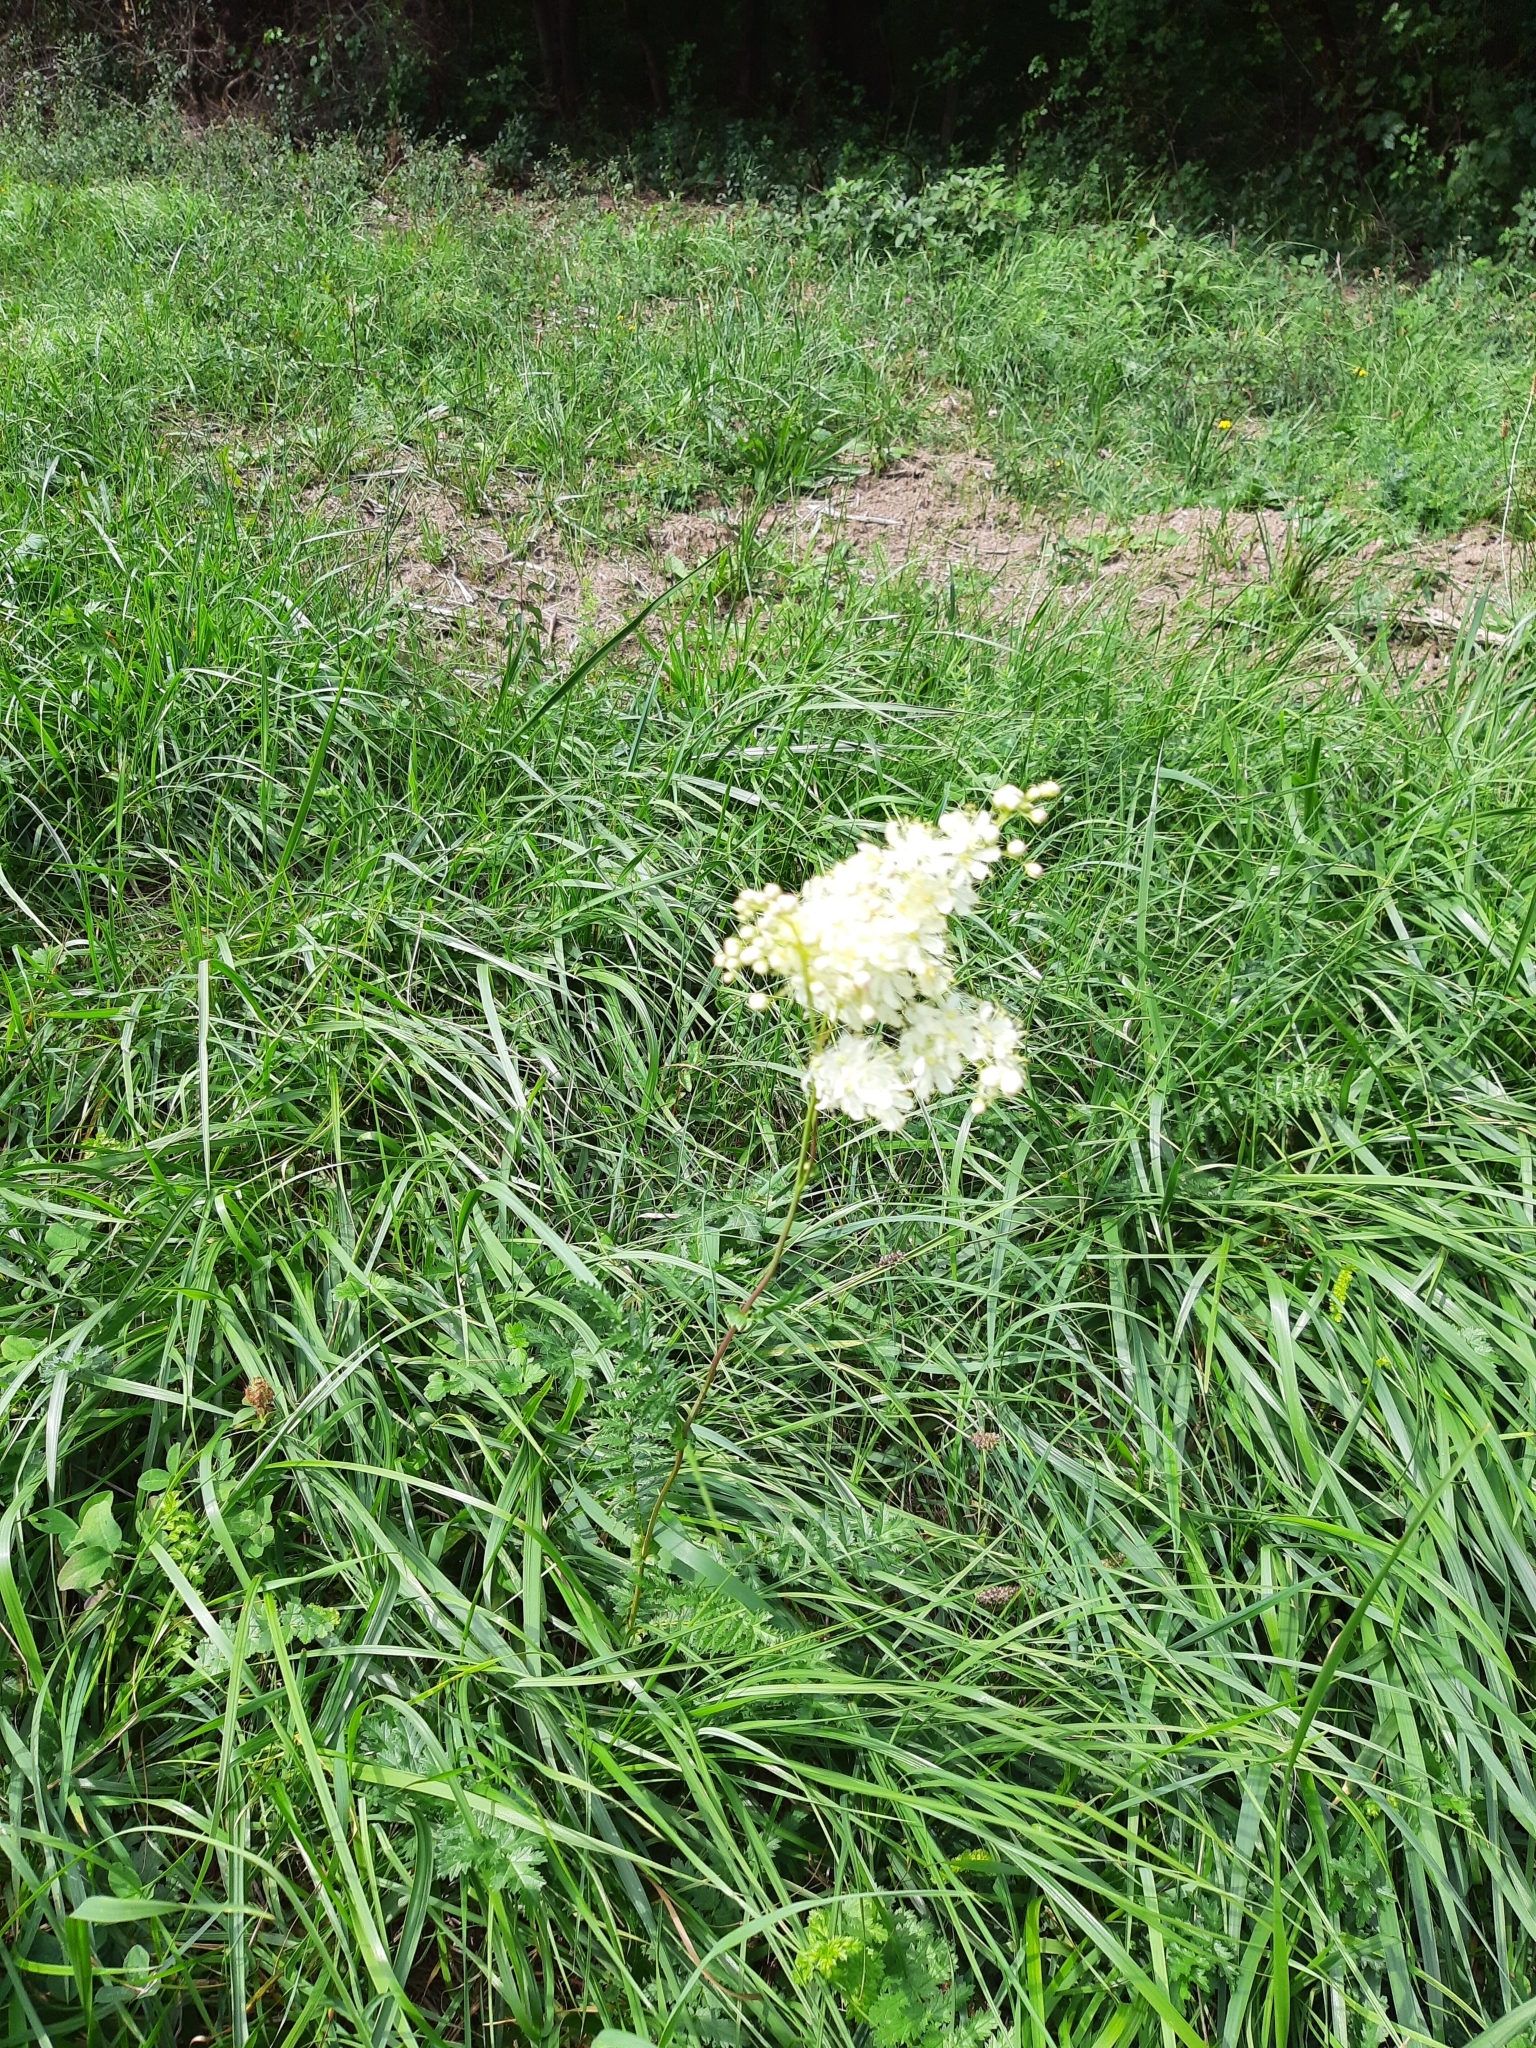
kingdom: Plantae
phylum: Tracheophyta
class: Magnoliopsida
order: Rosales
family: Rosaceae
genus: Filipendula
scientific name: Filipendula vulgaris
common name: Dropwort
